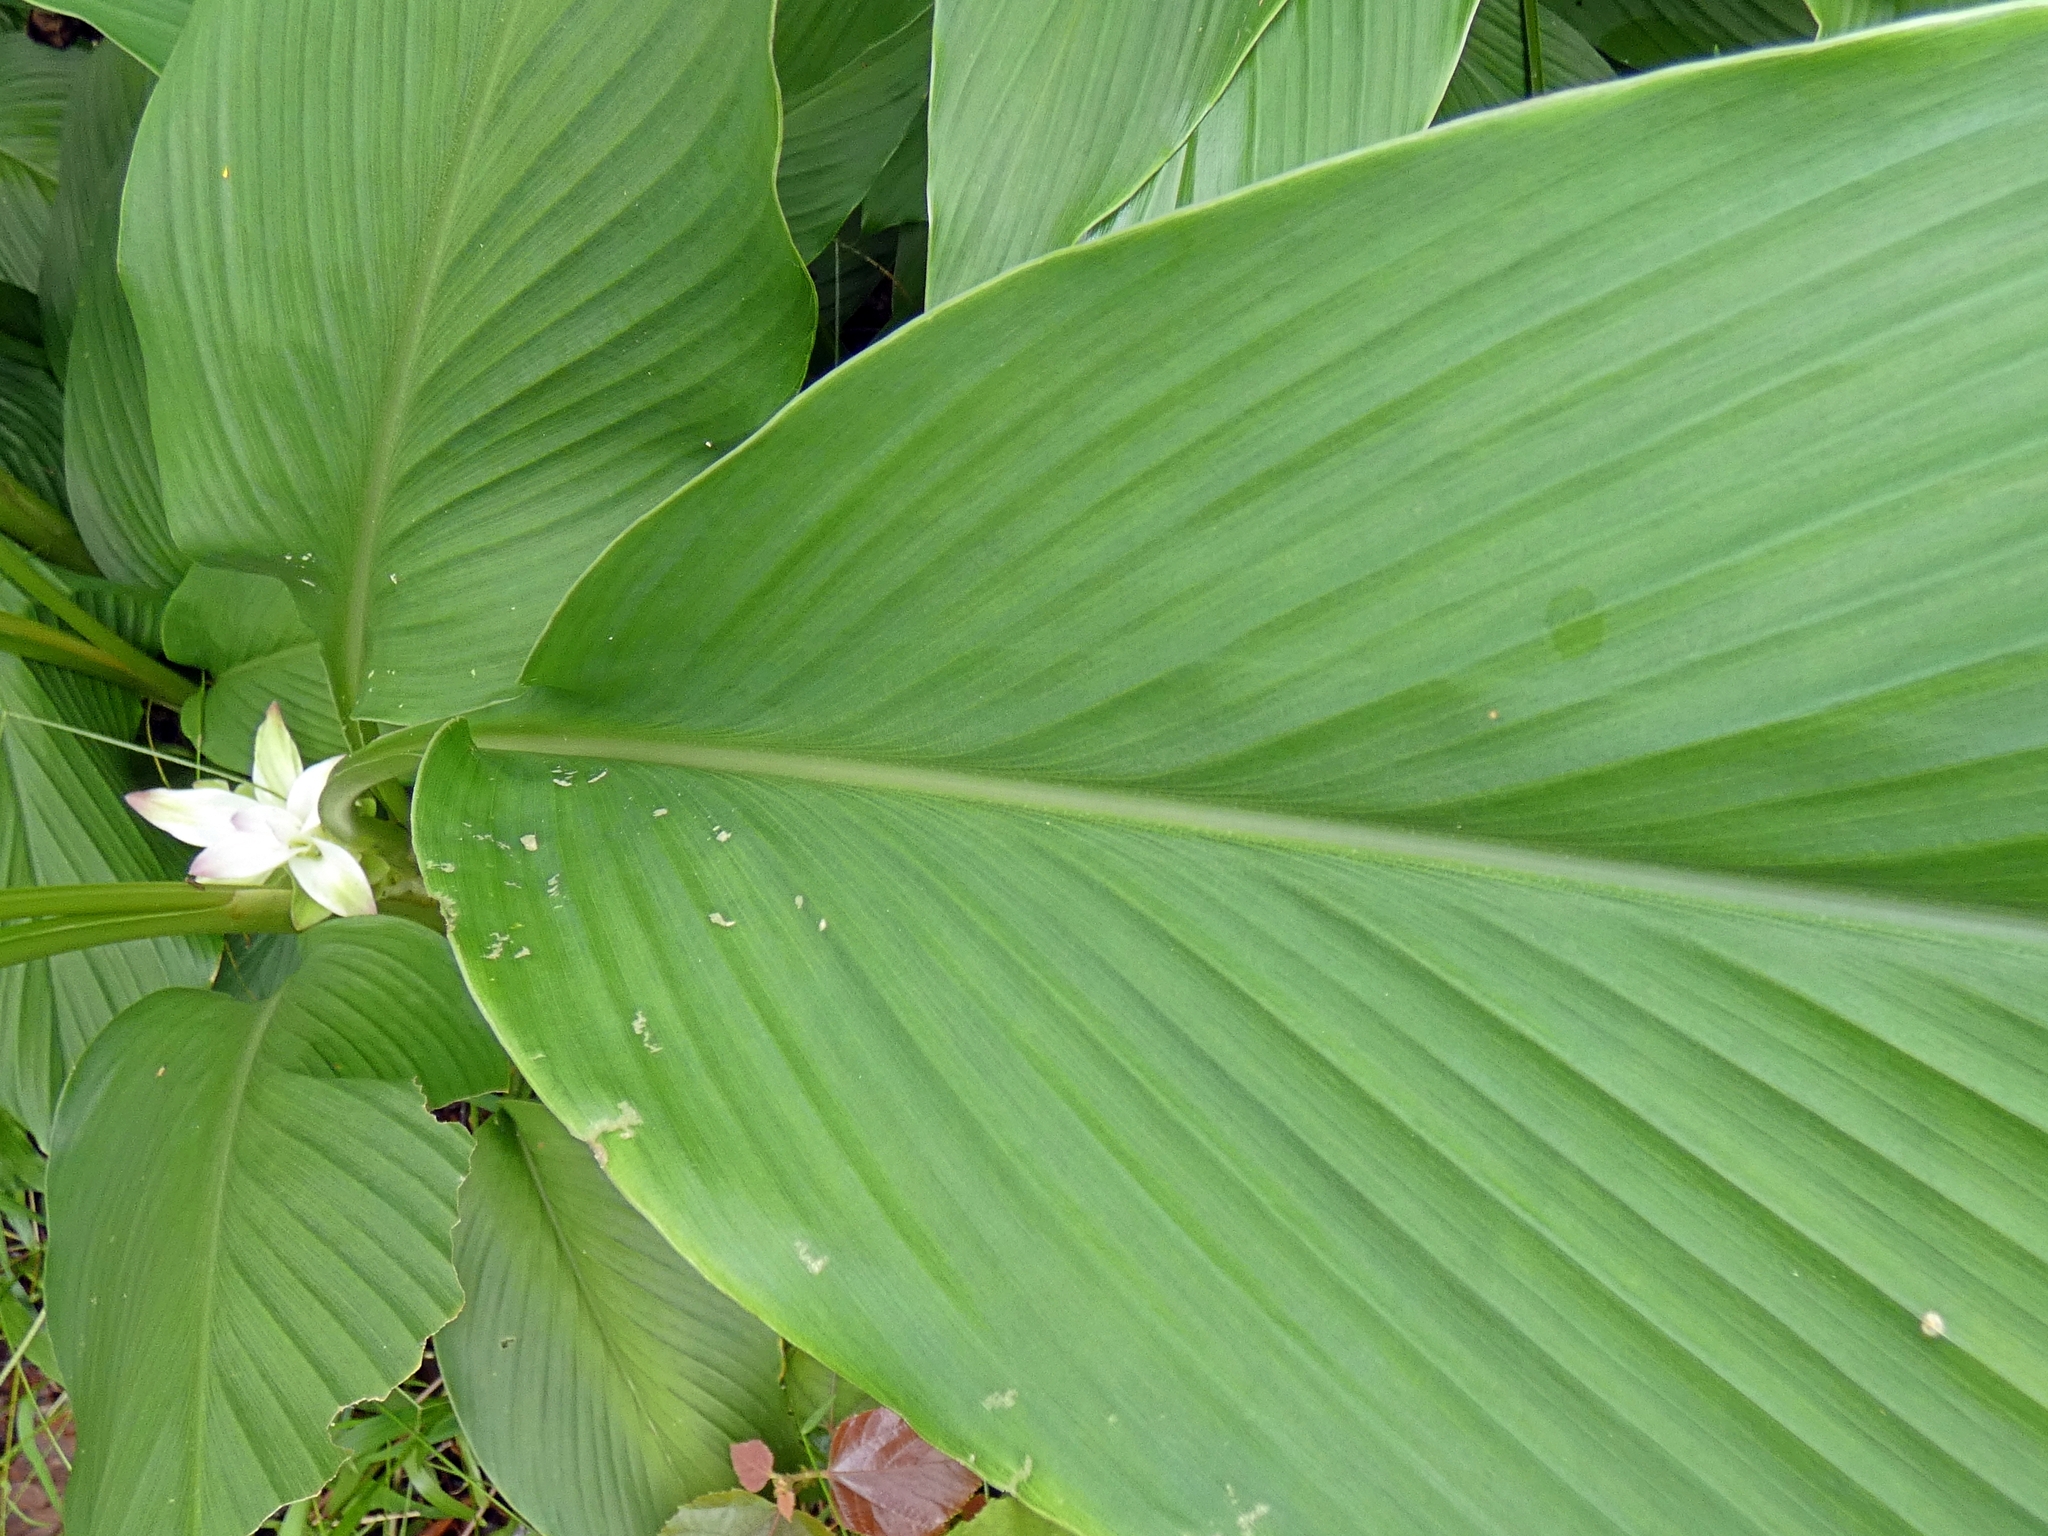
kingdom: Plantae
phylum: Tracheophyta
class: Liliopsida
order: Zingiberales
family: Zingiberaceae
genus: Curcuma
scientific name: Curcuma australasica
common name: Australian wild turmeric
